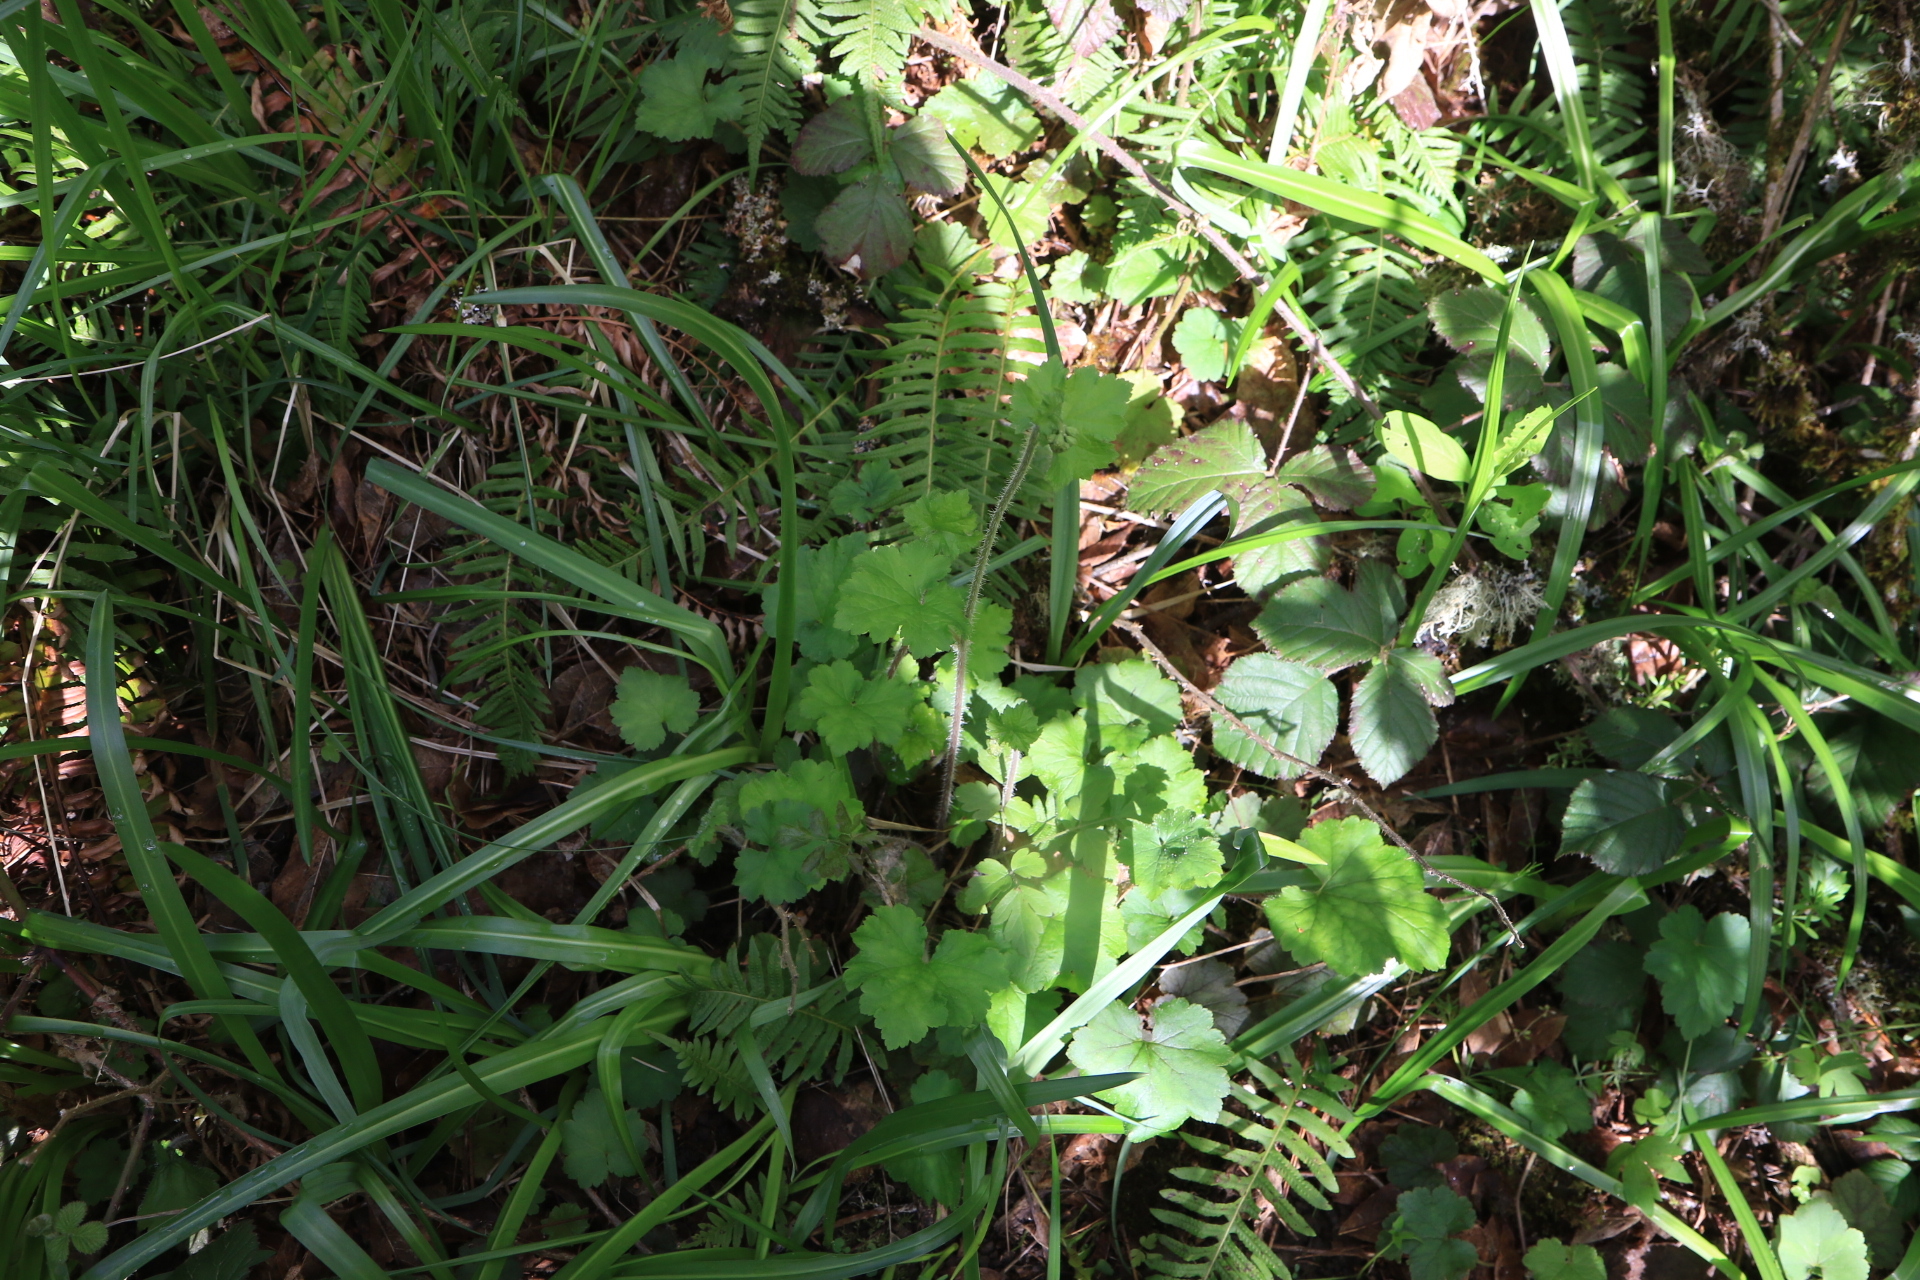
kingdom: Plantae
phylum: Tracheophyta
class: Magnoliopsida
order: Saxifragales
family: Saxifragaceae
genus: Tellima
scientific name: Tellima grandiflora
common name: Fringecups
